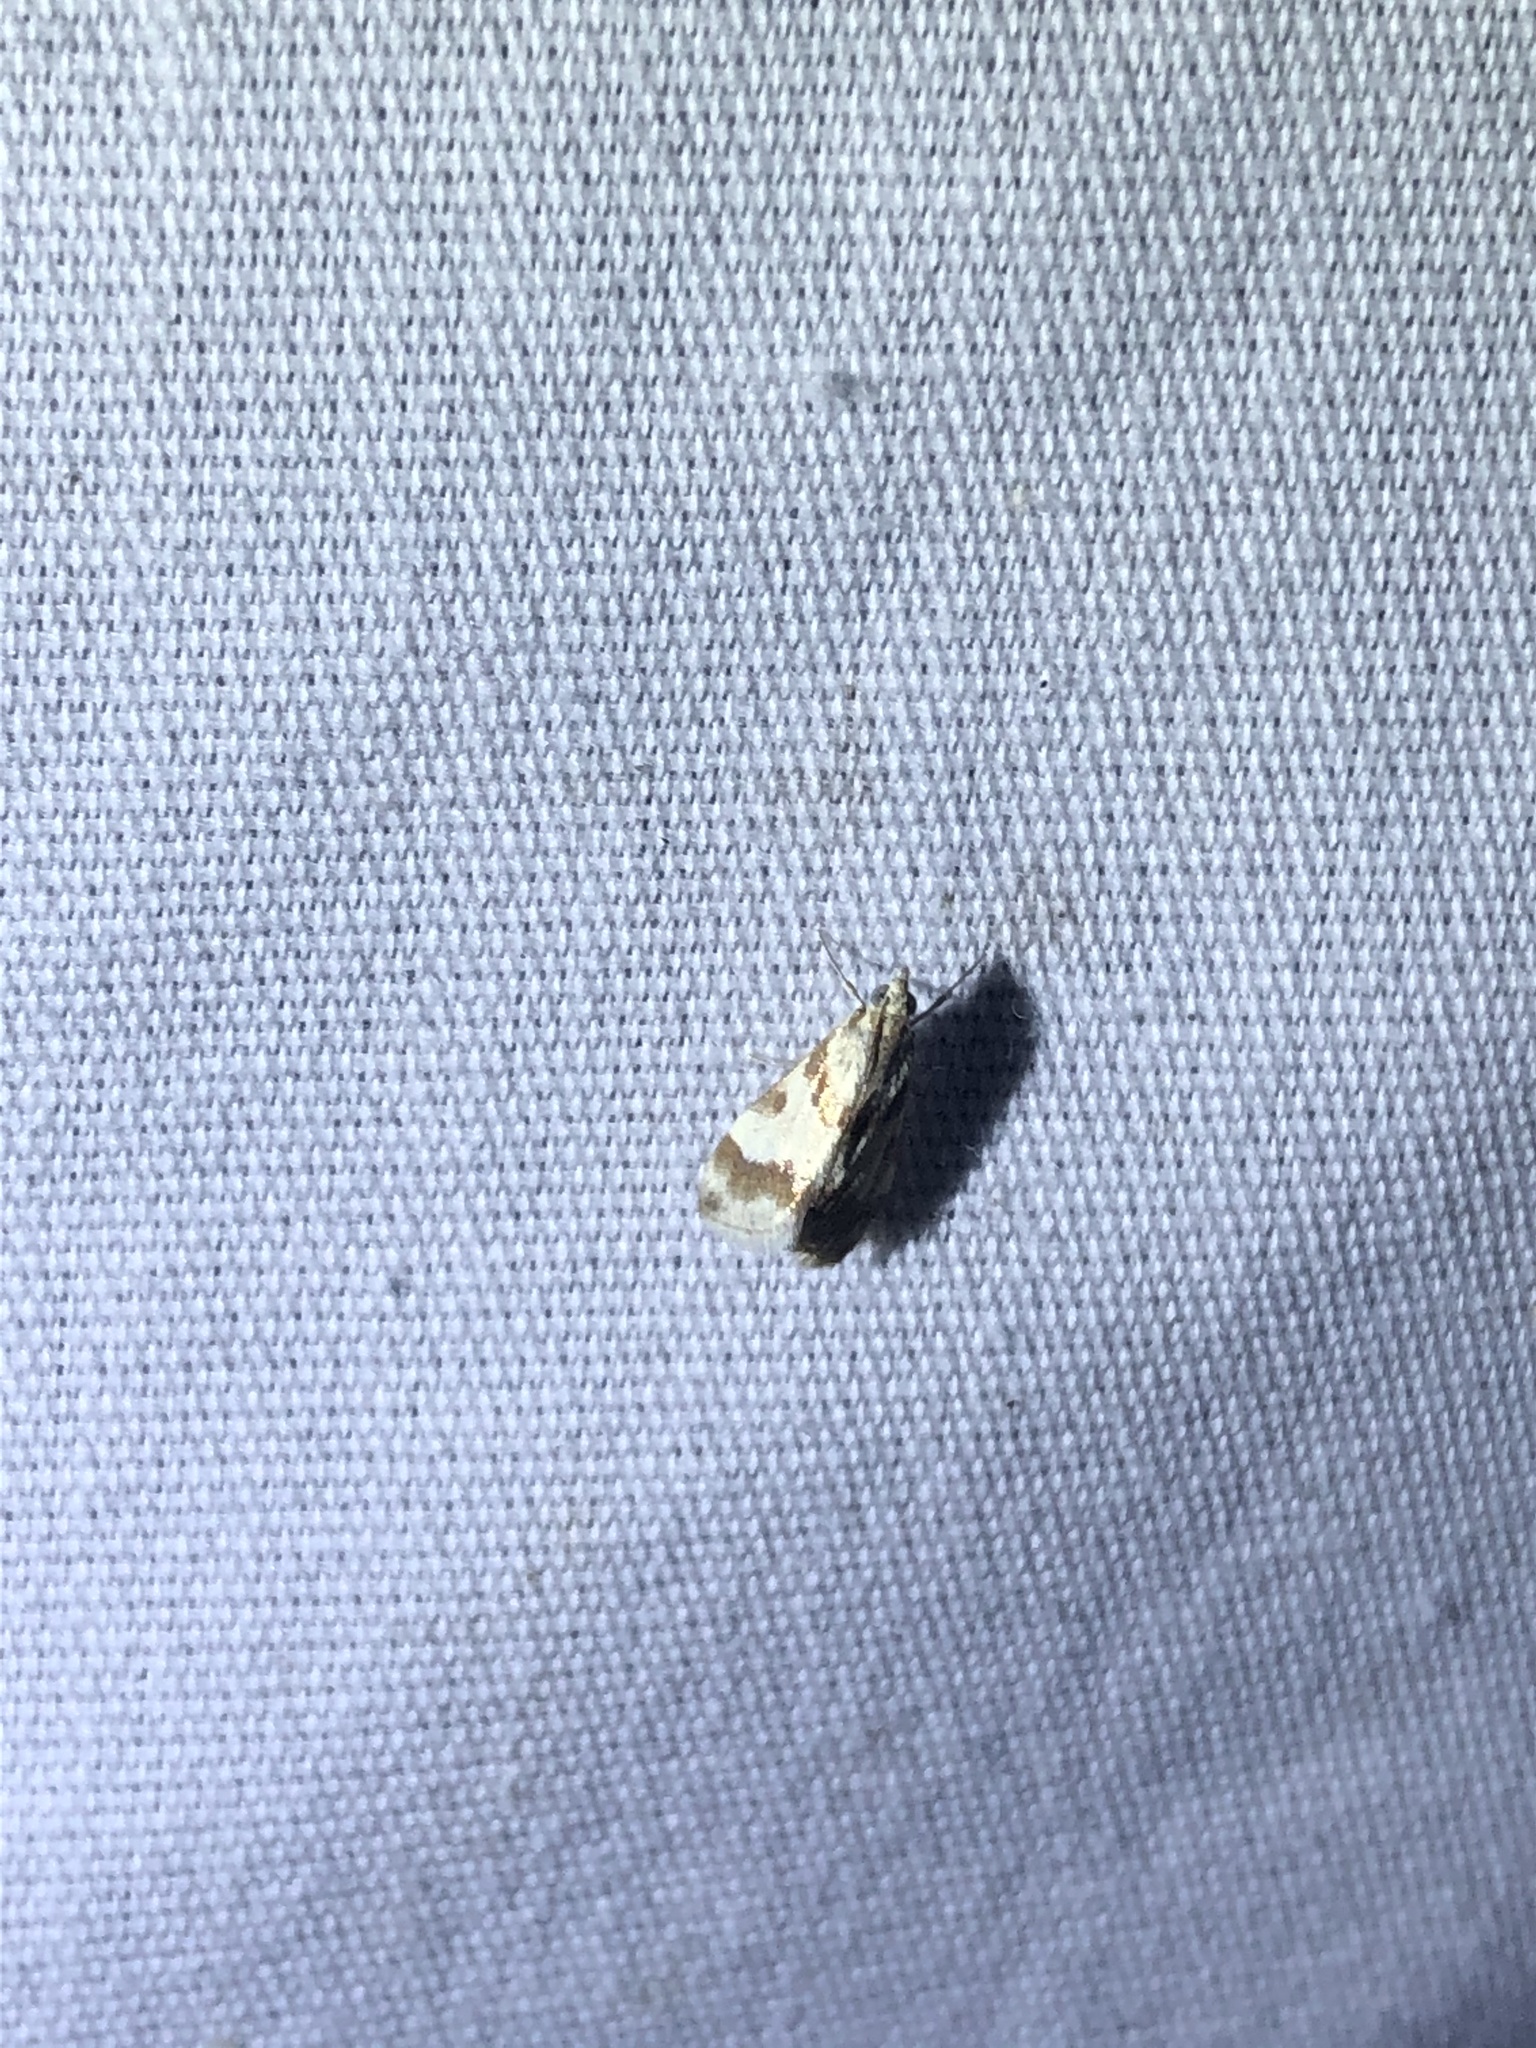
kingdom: Animalia
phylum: Arthropoda
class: Insecta
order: Lepidoptera
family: Crambidae
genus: Noctuelia
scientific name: Noctuelia Mimoschinia rufofascialis
